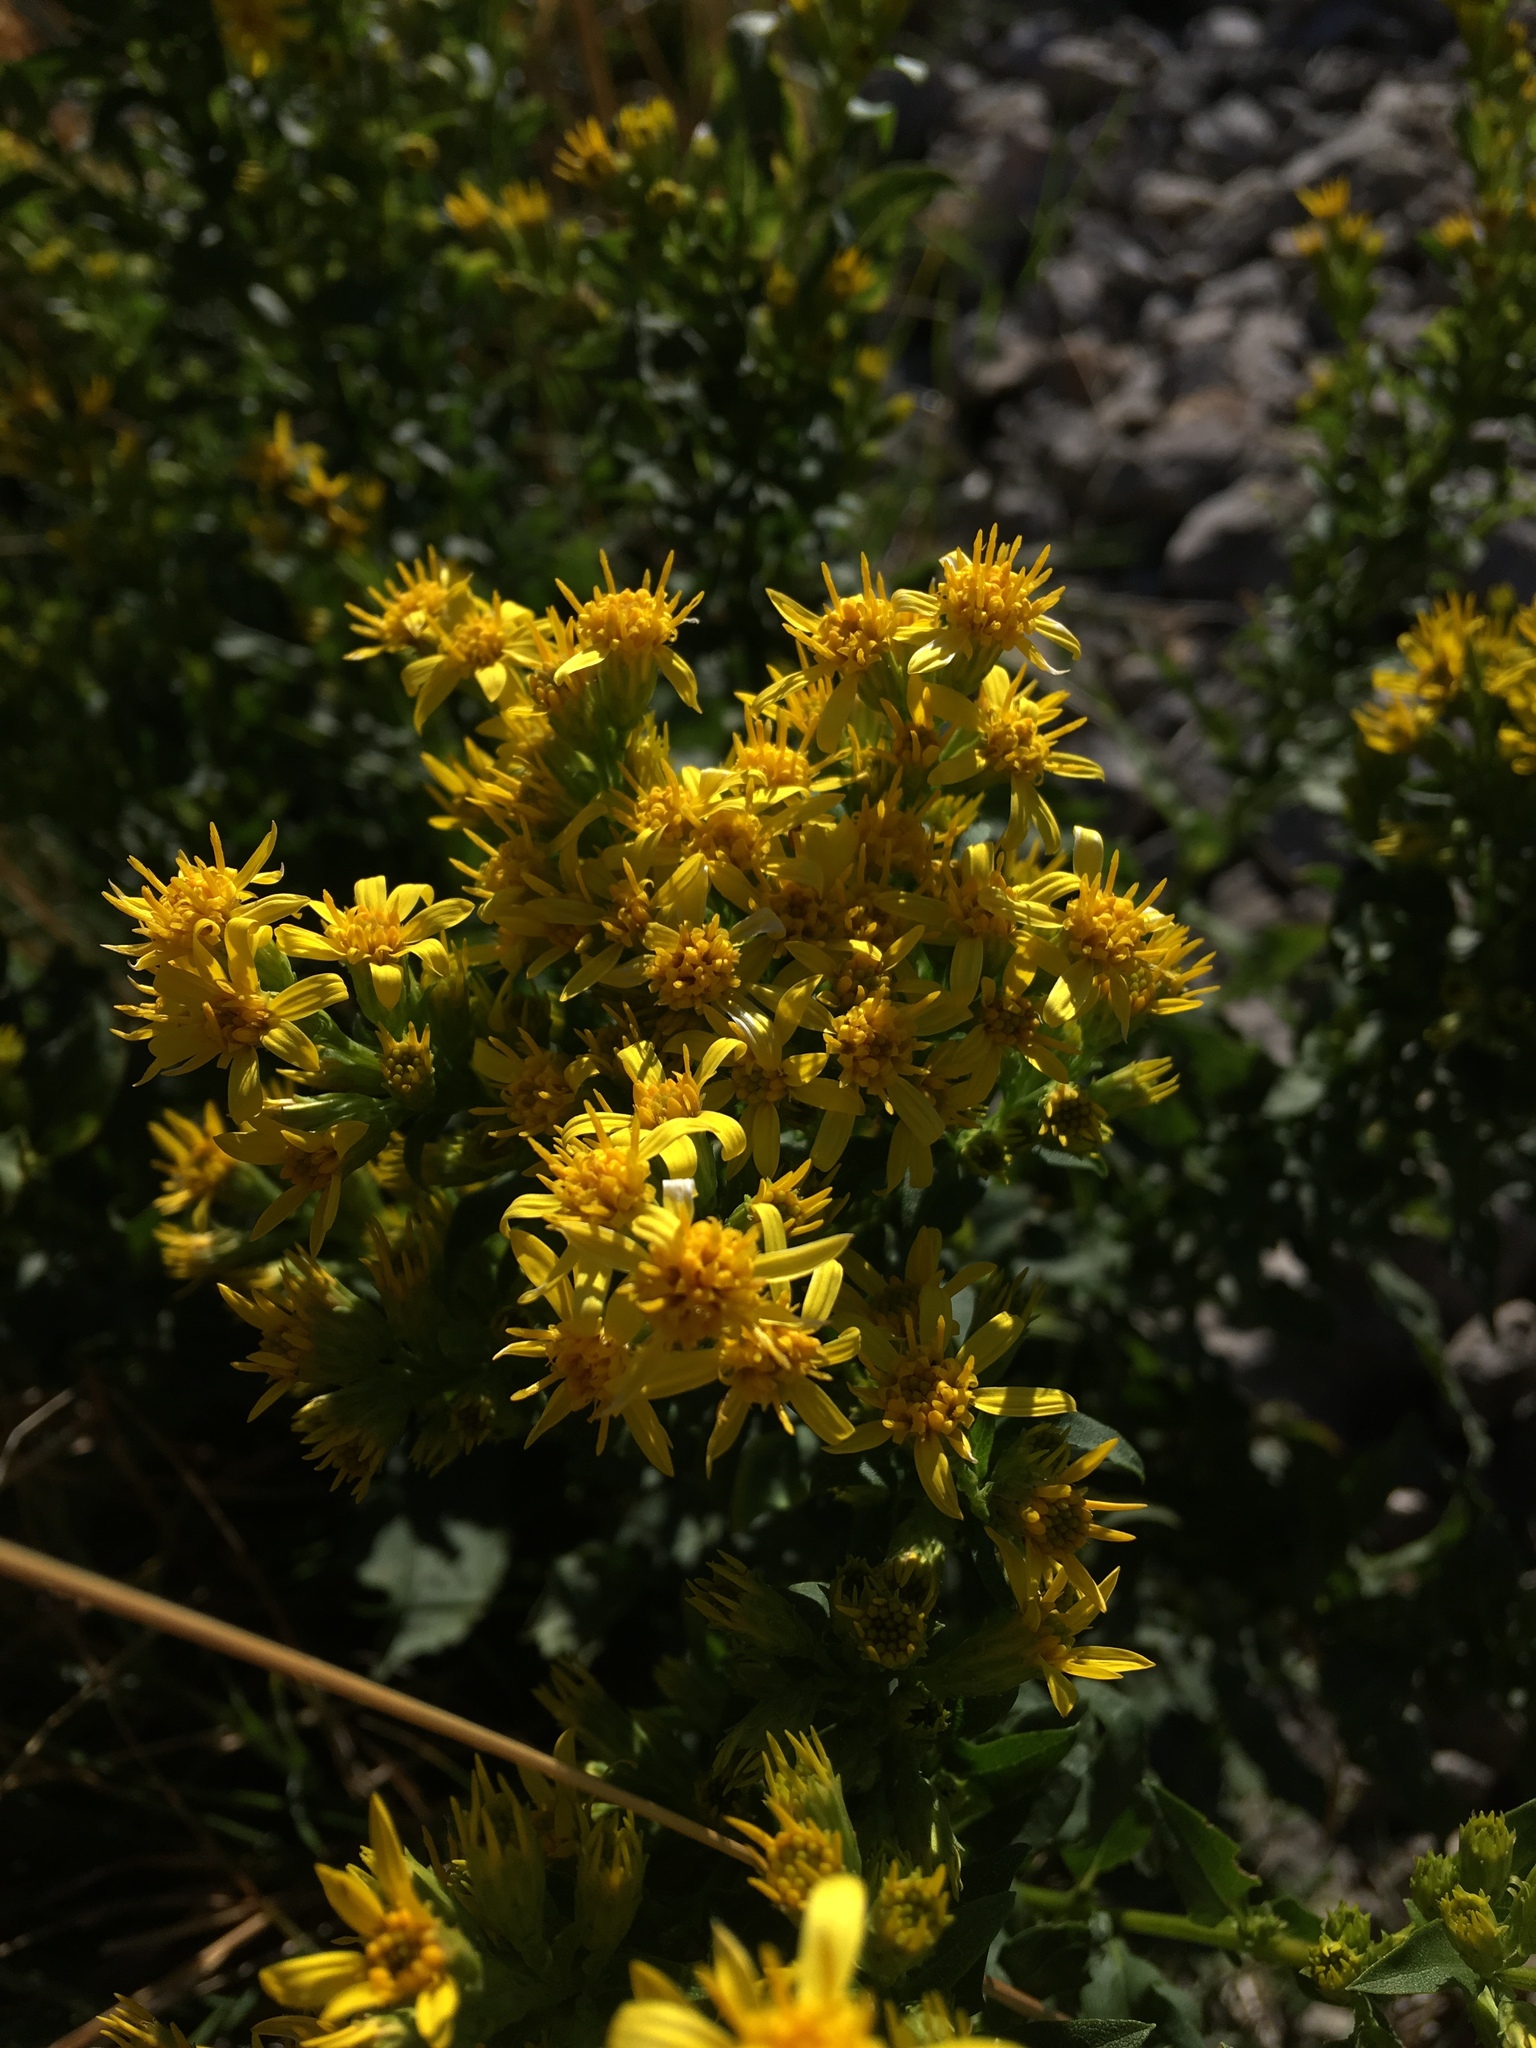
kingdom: Plantae
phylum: Tracheophyta
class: Magnoliopsida
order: Asterales
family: Asteraceae
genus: Solidago
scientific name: Solidago virgaurea
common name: Goldenrod
